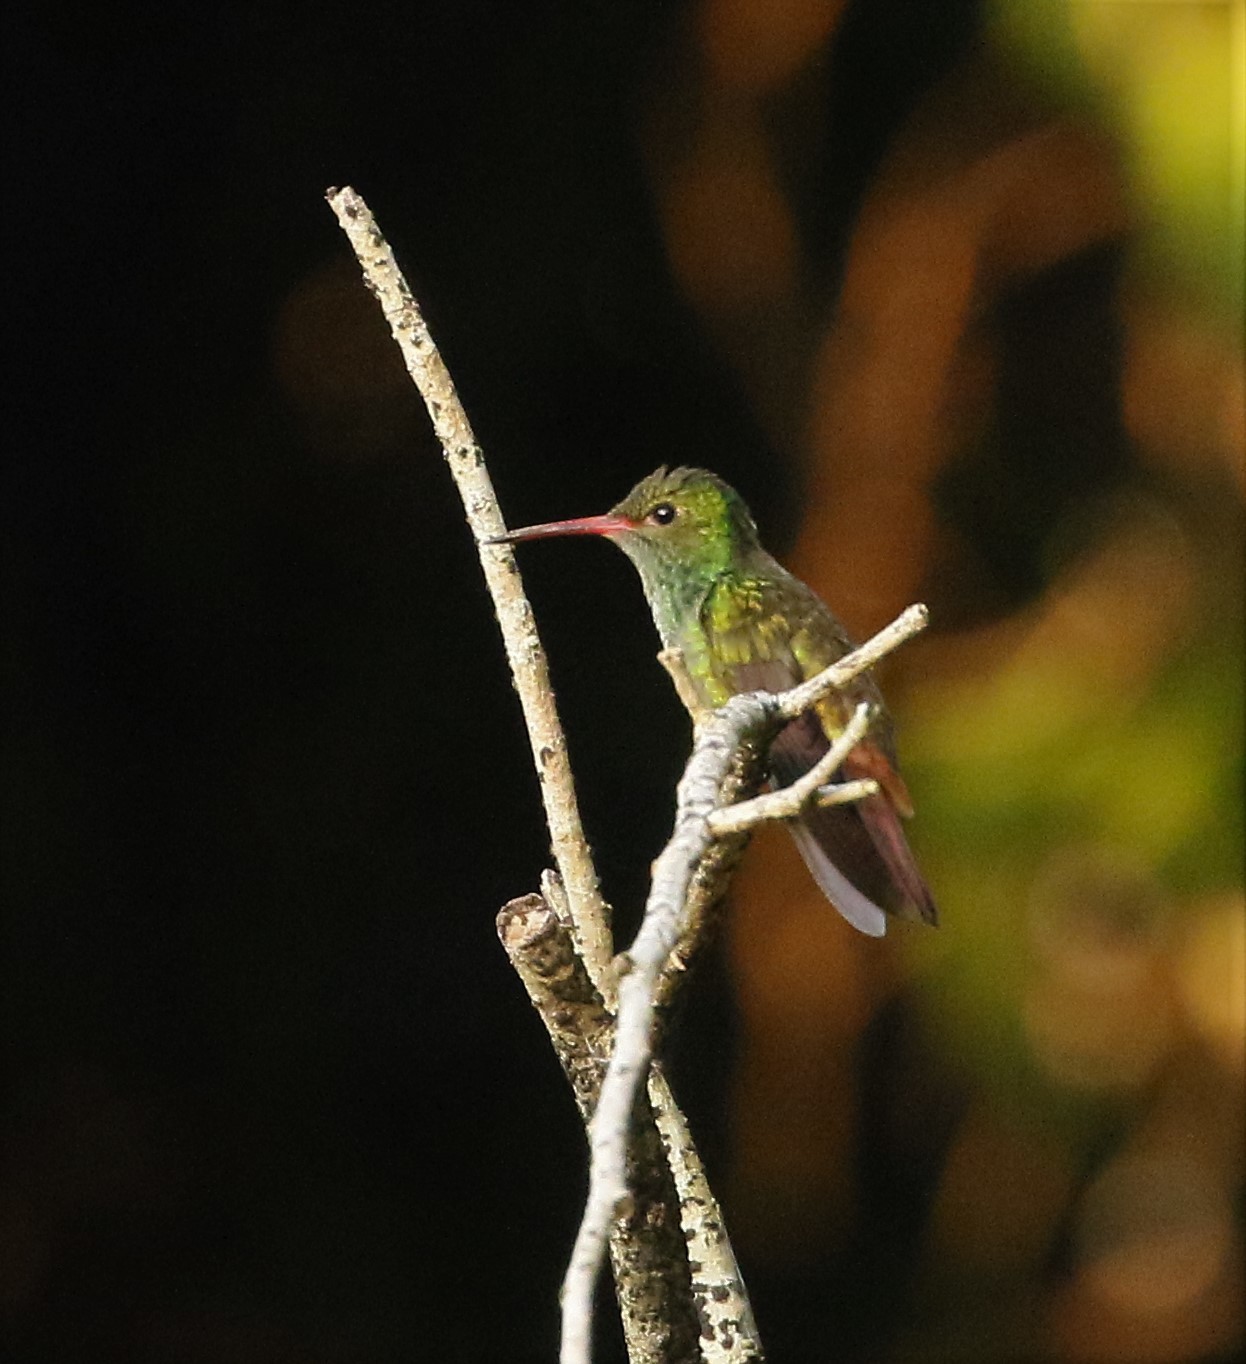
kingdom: Animalia
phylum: Chordata
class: Aves
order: Apodiformes
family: Trochilidae
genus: Amazilia
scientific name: Amazilia tzacatl
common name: Rufous-tailed hummingbird
